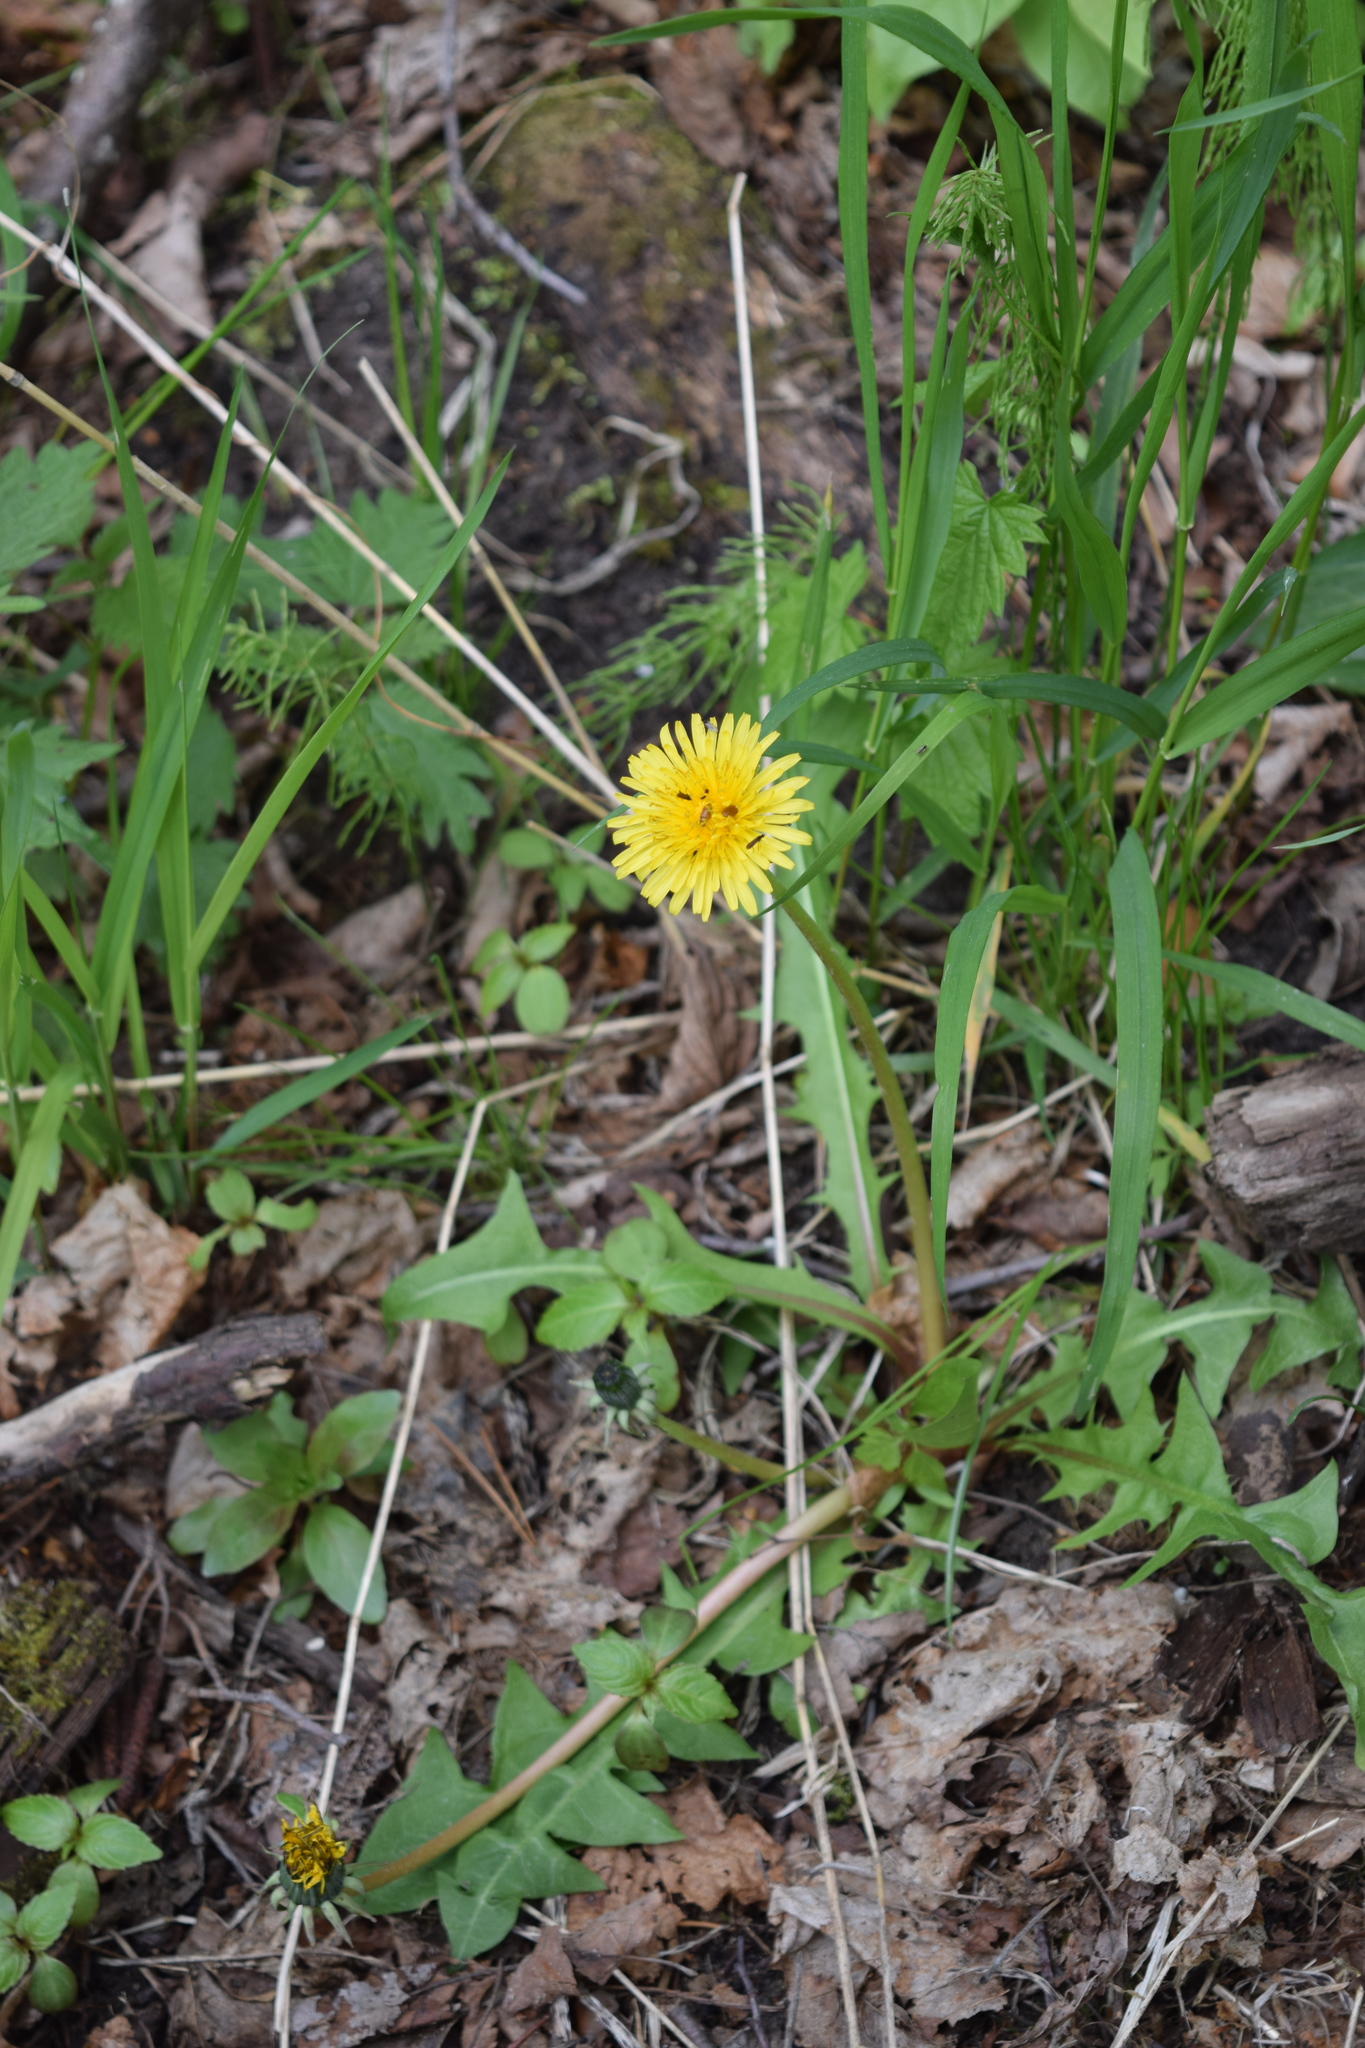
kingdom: Plantae
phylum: Tracheophyta
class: Magnoliopsida
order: Asterales
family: Asteraceae
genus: Taraxacum
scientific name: Taraxacum officinale
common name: Common dandelion
